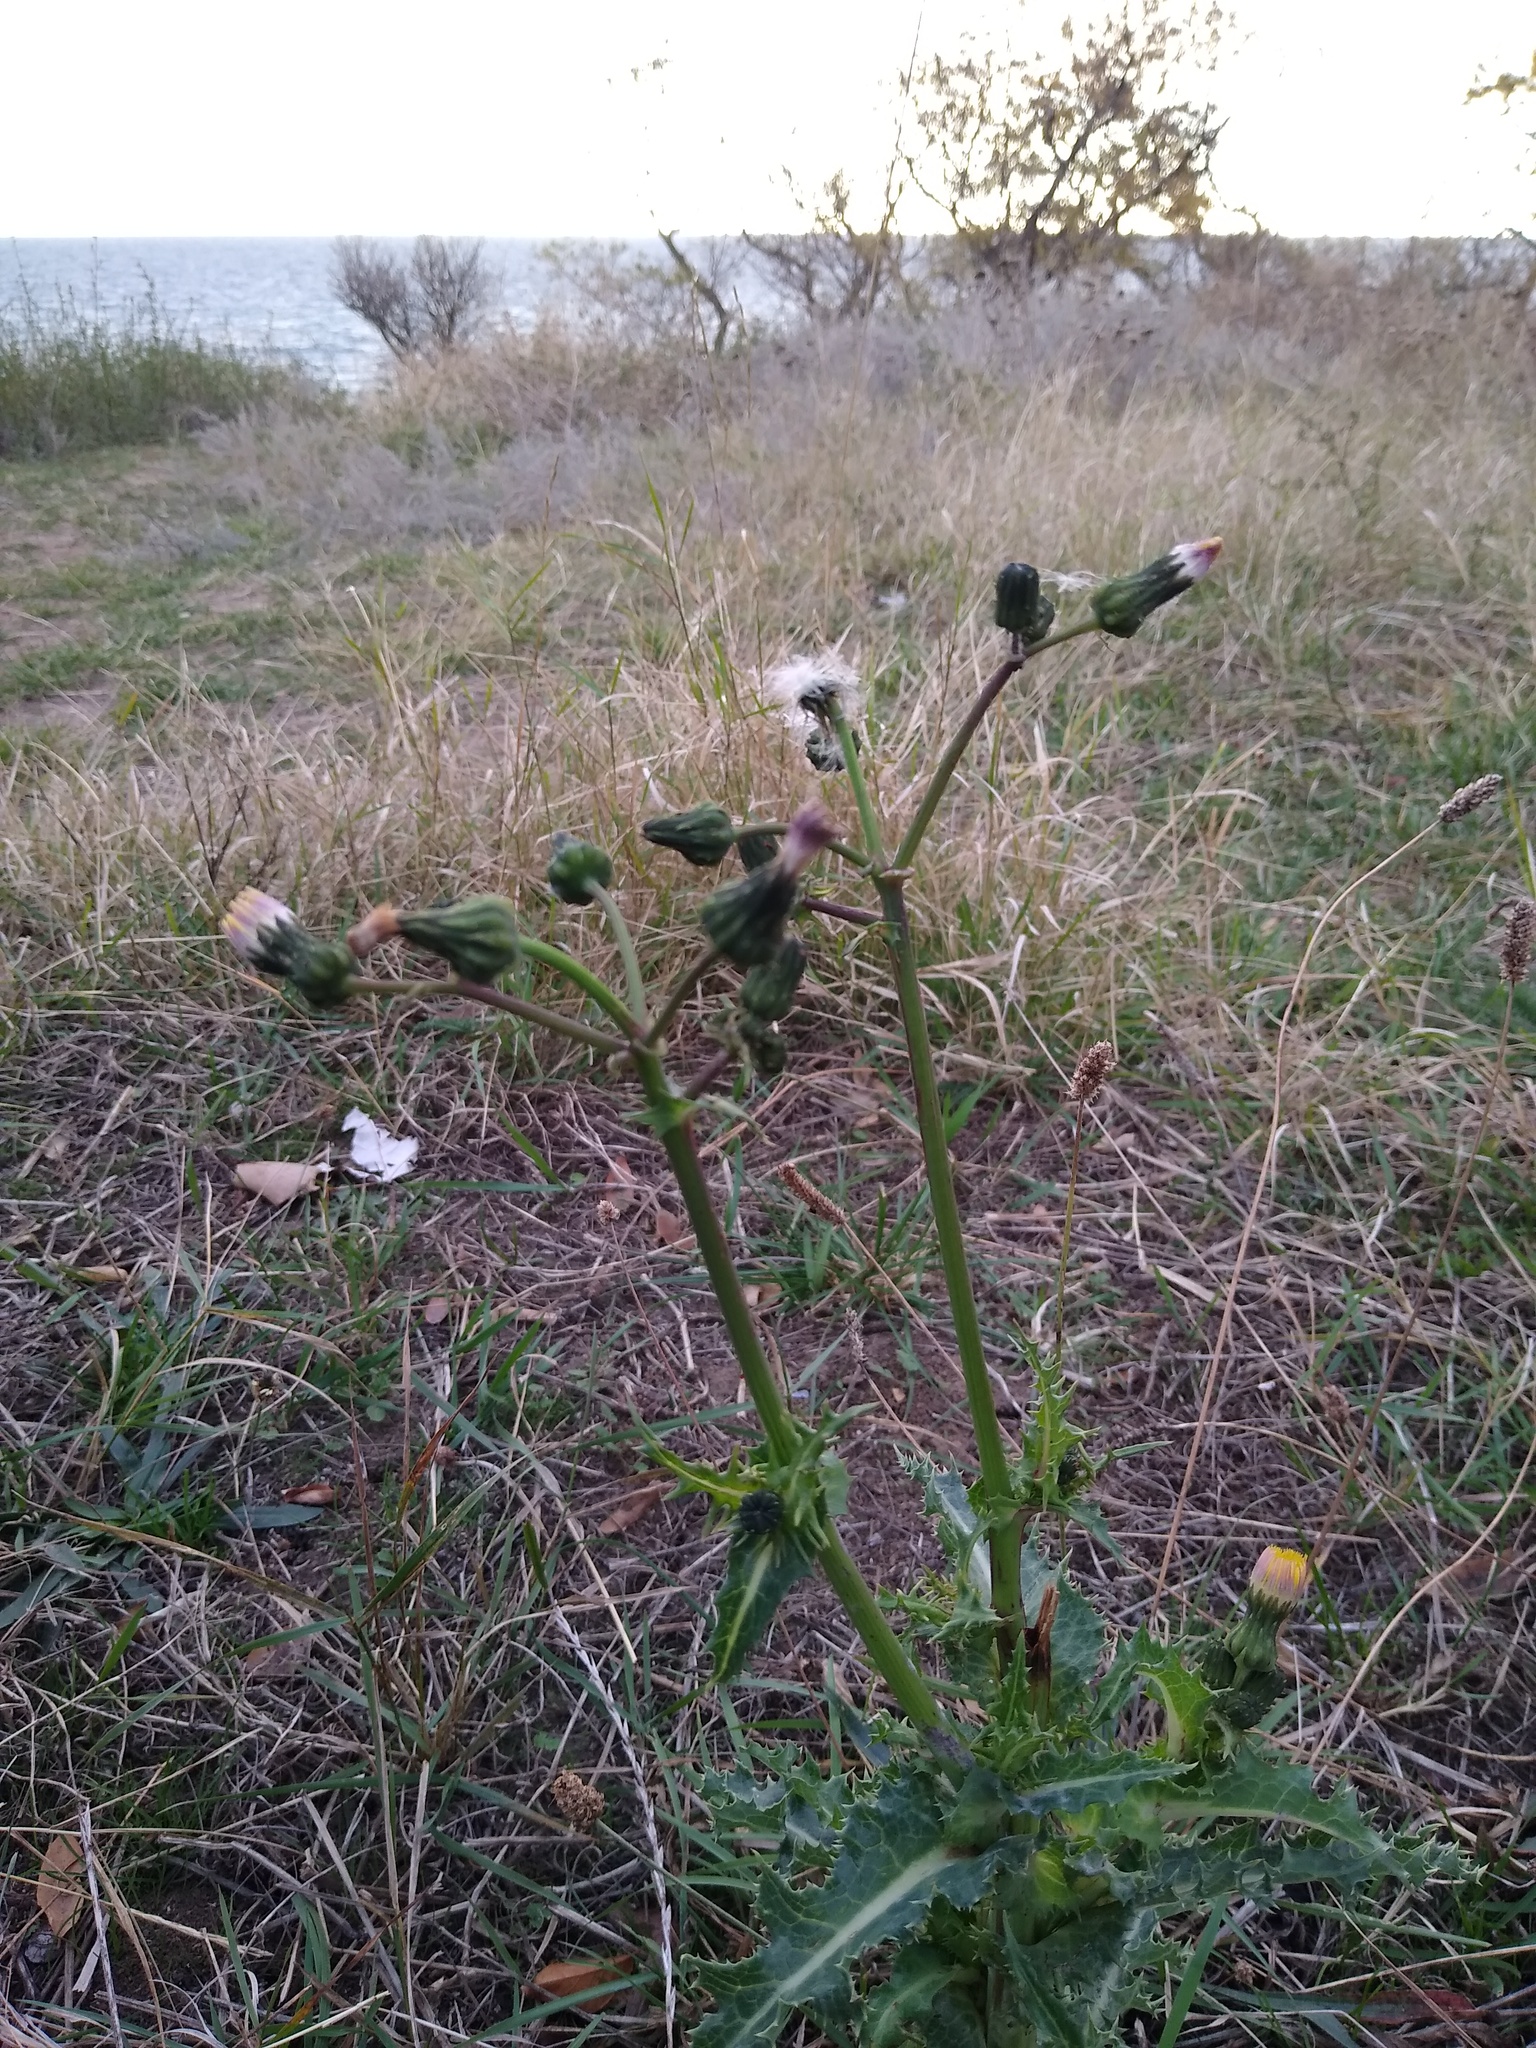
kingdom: Plantae
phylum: Tracheophyta
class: Magnoliopsida
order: Asterales
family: Asteraceae
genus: Sonchus
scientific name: Sonchus asper
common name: Prickly sow-thistle
